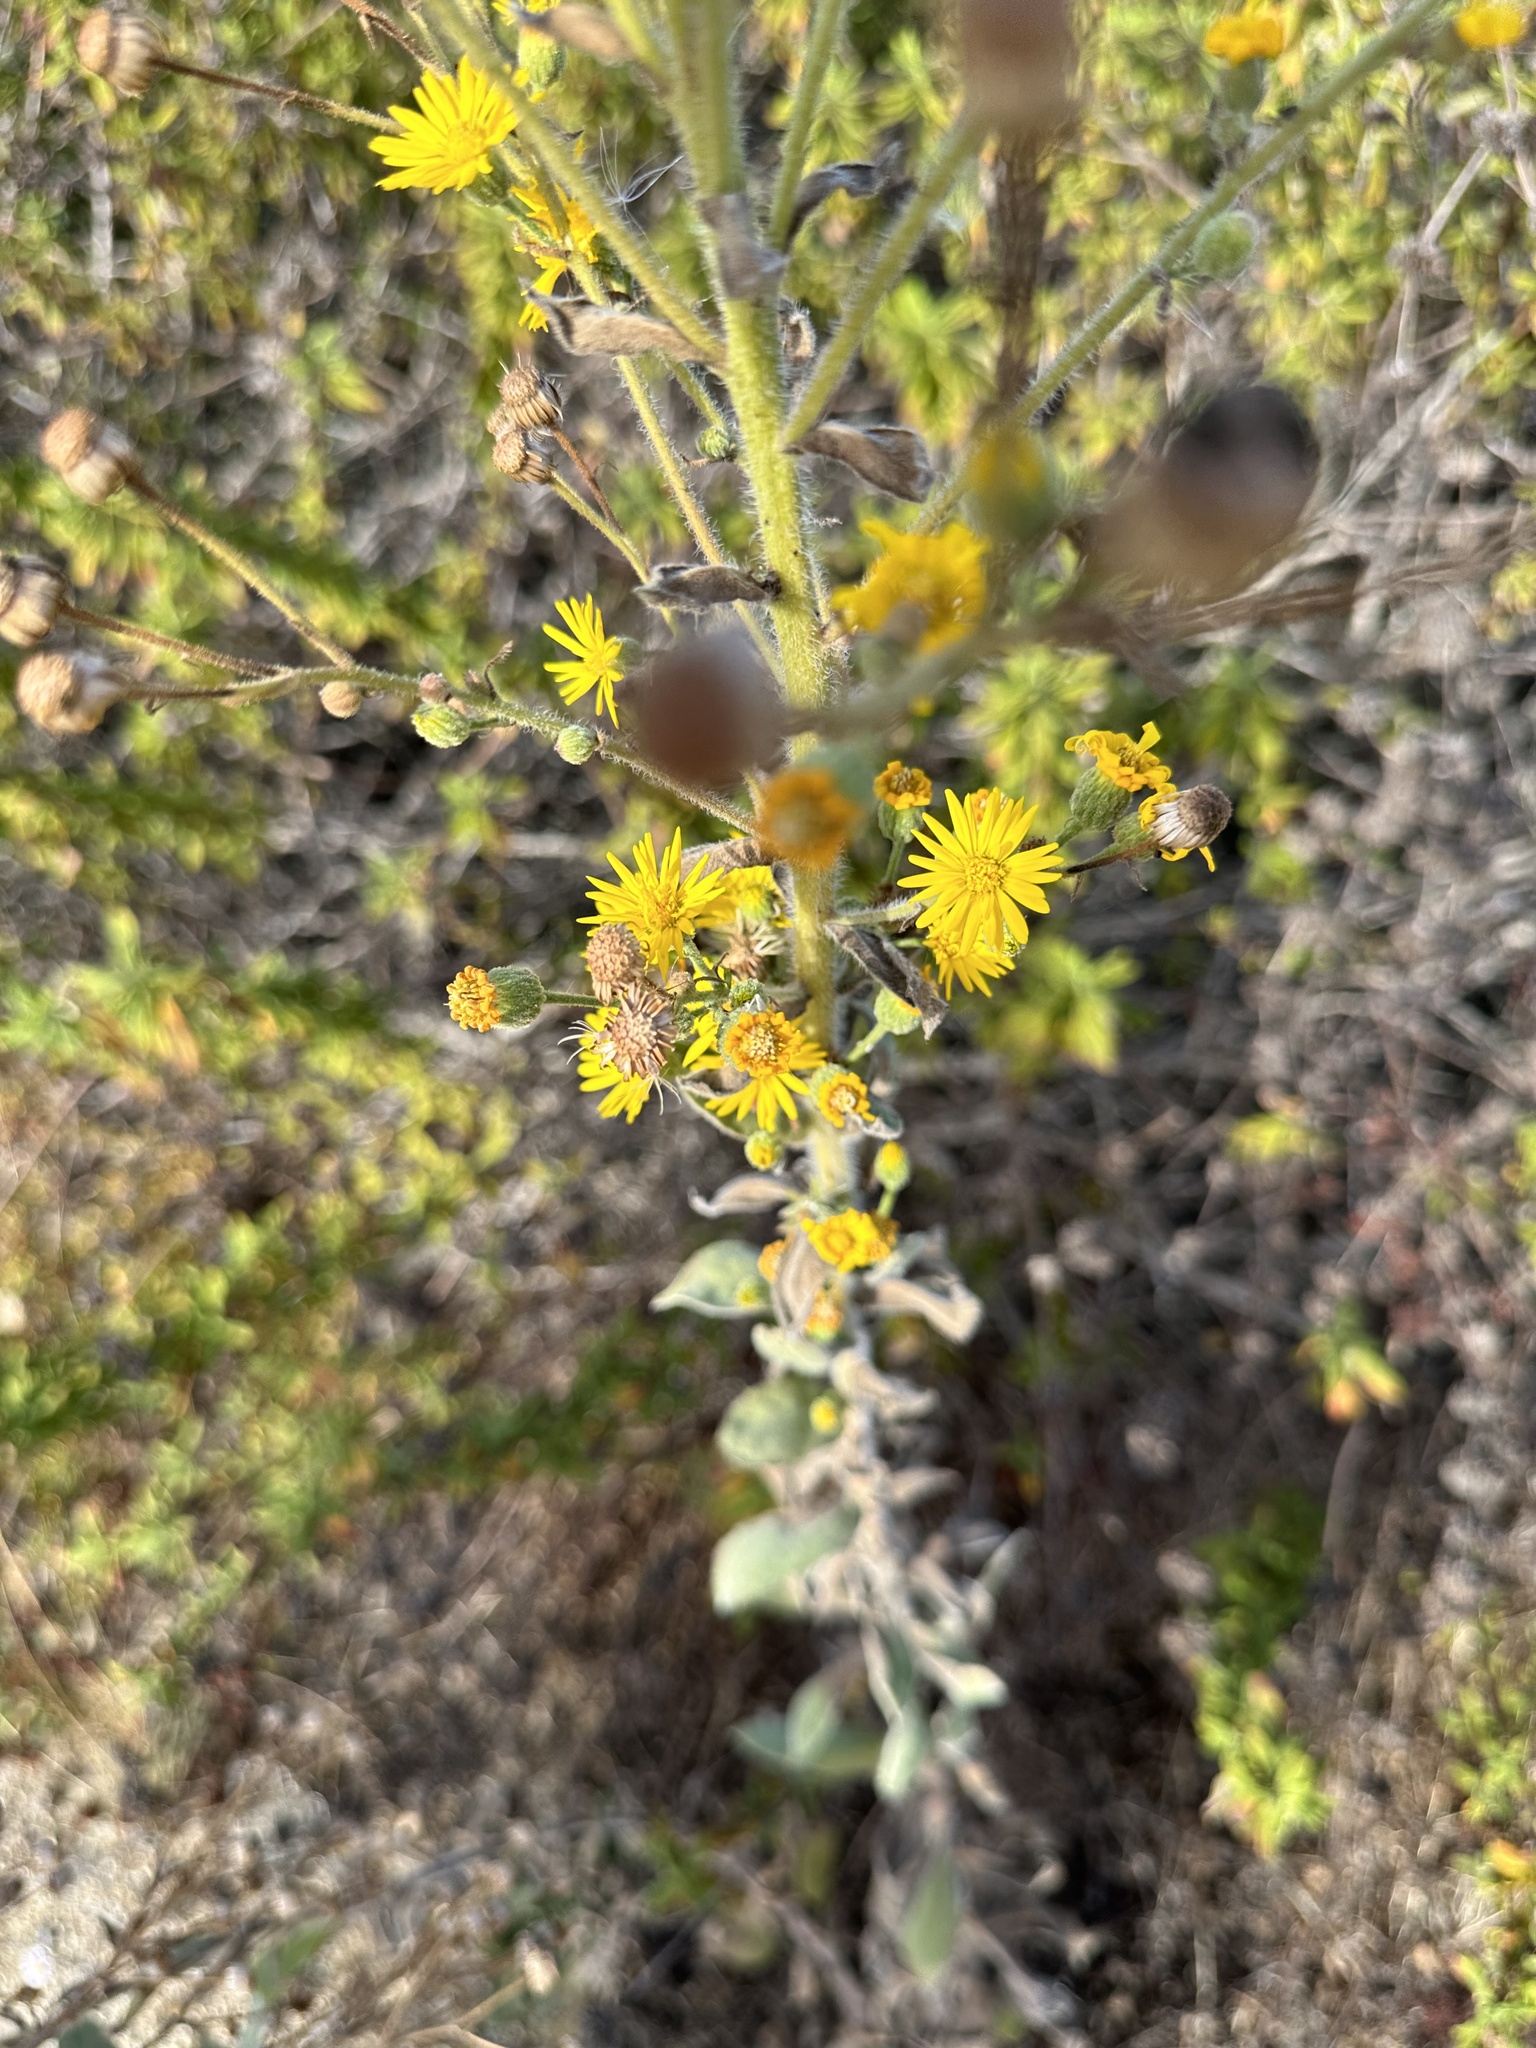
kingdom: Plantae
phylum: Tracheophyta
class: Magnoliopsida
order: Asterales
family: Asteraceae
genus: Heterotheca
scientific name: Heterotheca grandiflora
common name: Telegraphweed
